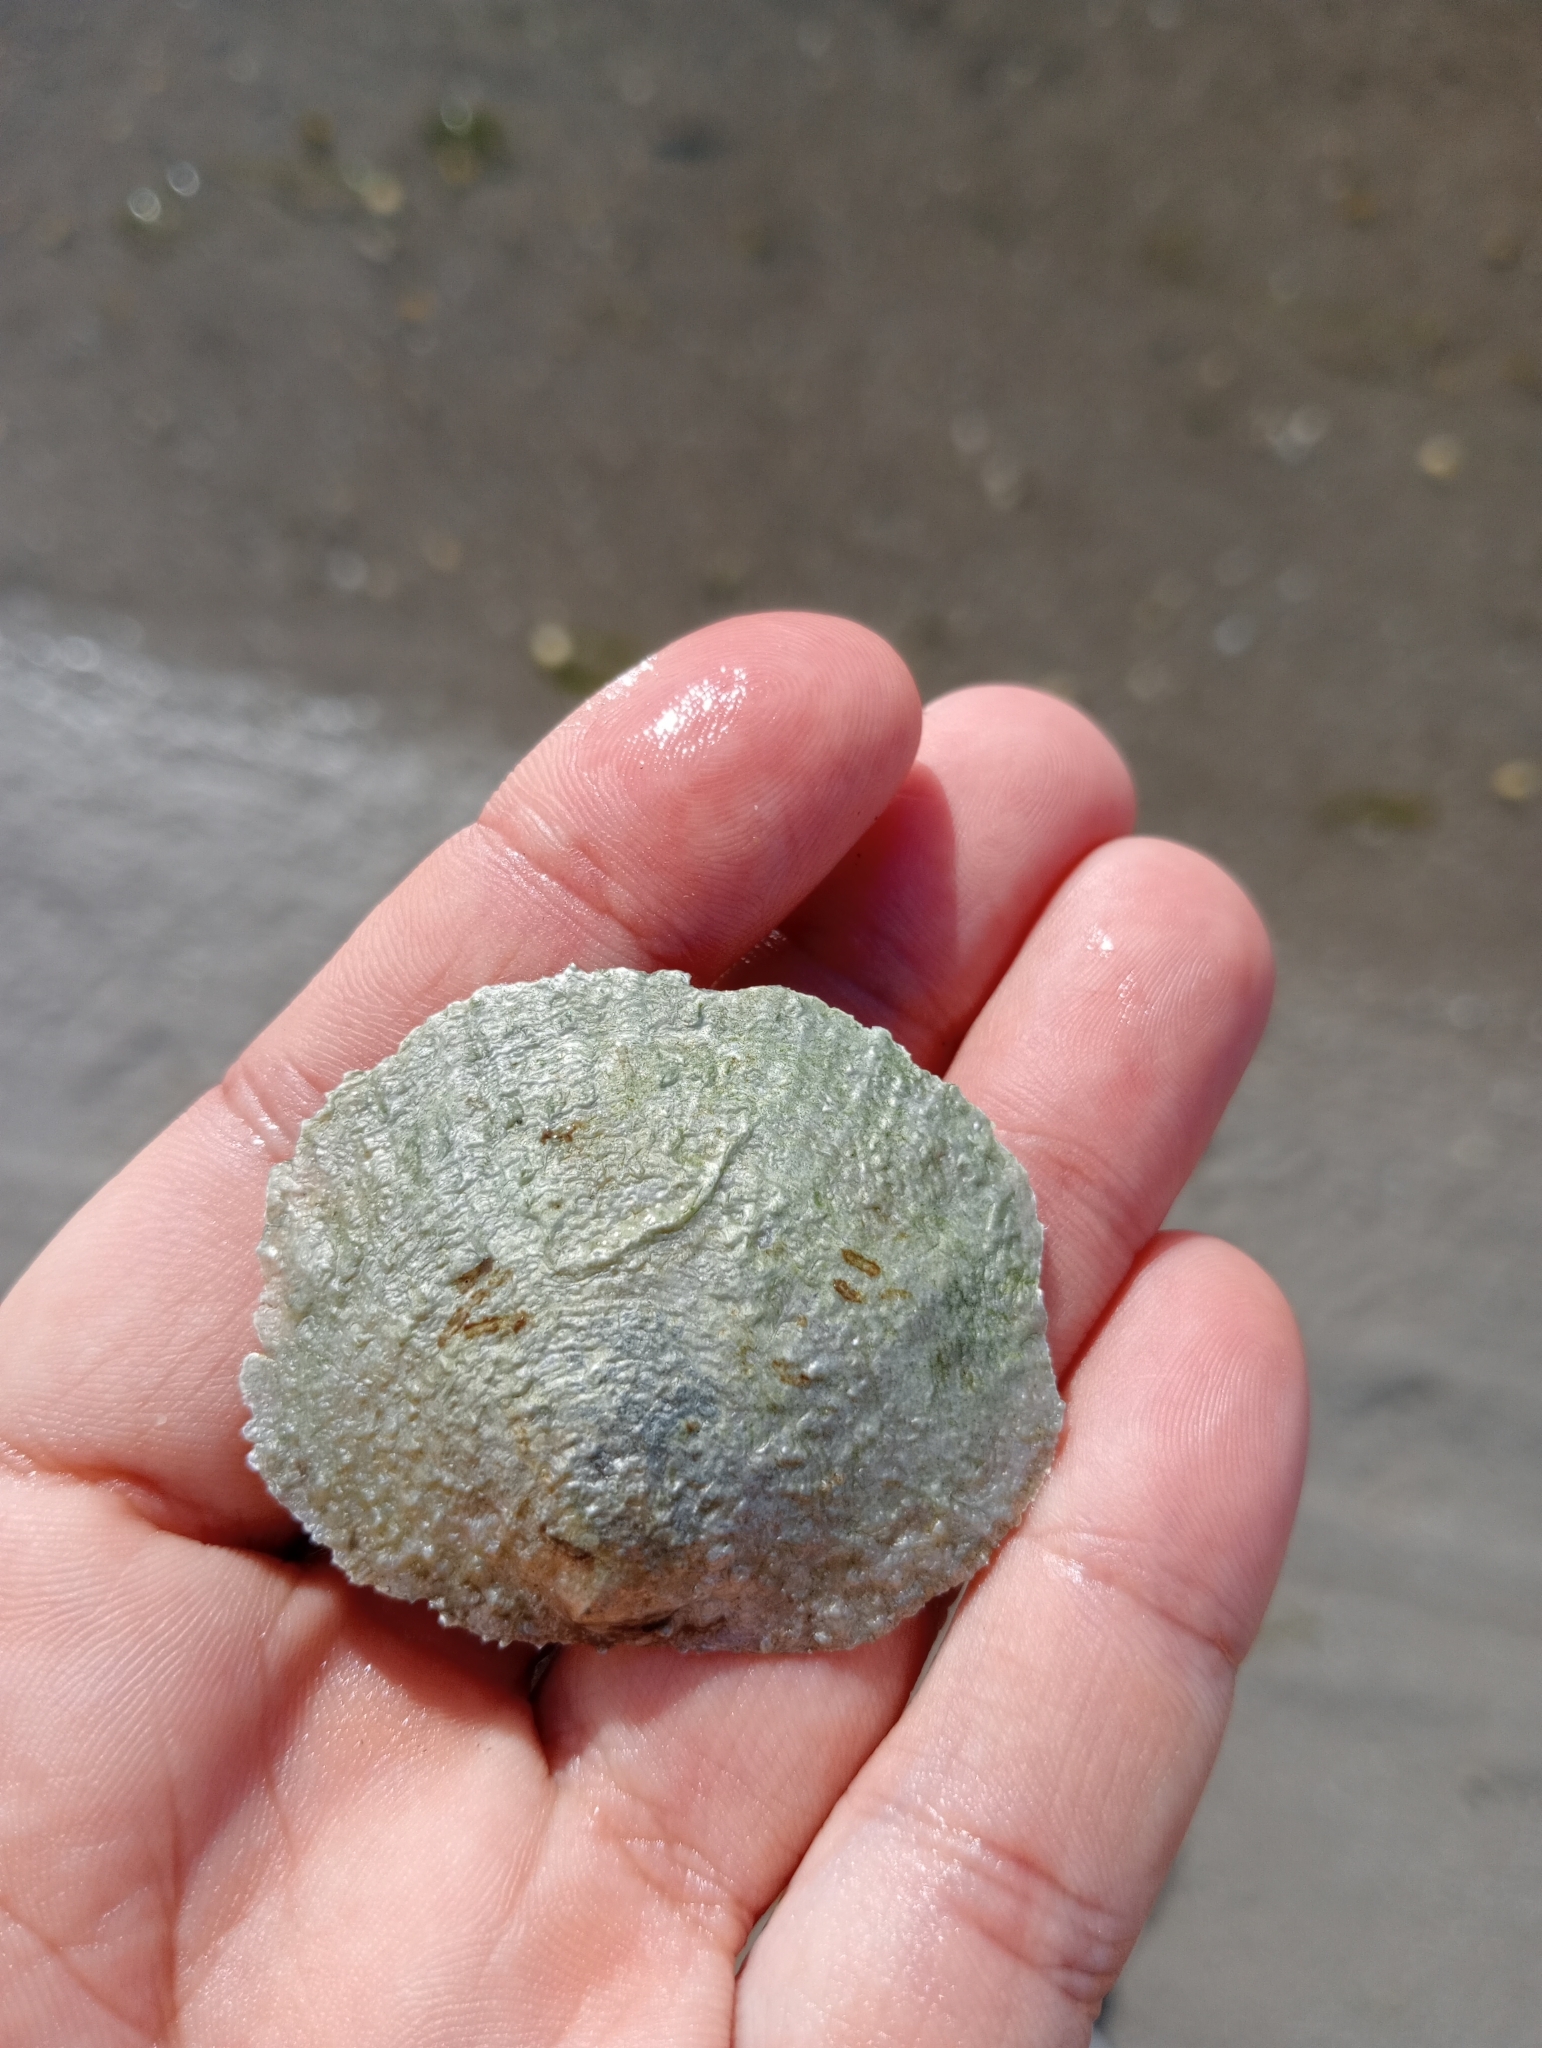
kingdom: Animalia
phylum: Mollusca
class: Bivalvia
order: Pectinida
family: Anomiidae
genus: Anomia
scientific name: Anomia ephippium
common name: Saddle oyster
